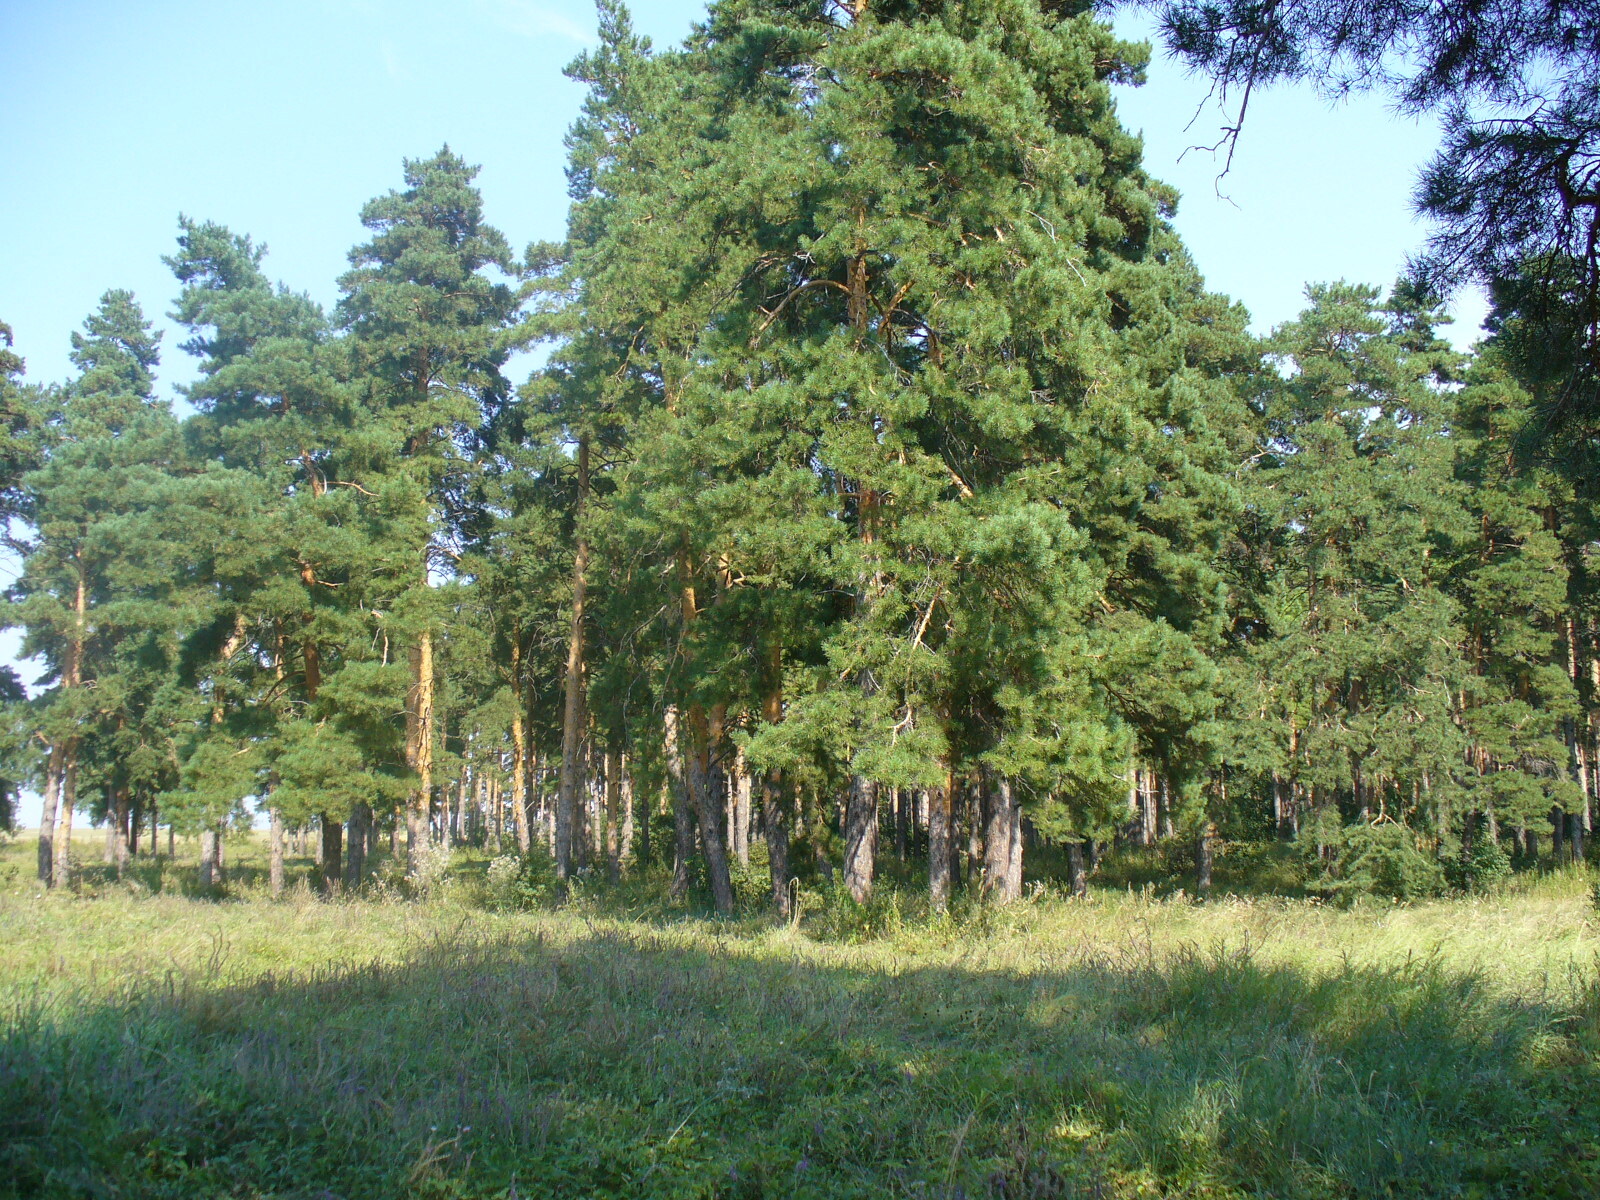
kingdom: Plantae
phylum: Tracheophyta
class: Pinopsida
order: Pinales
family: Pinaceae
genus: Pinus
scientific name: Pinus sylvestris
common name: Scots pine
